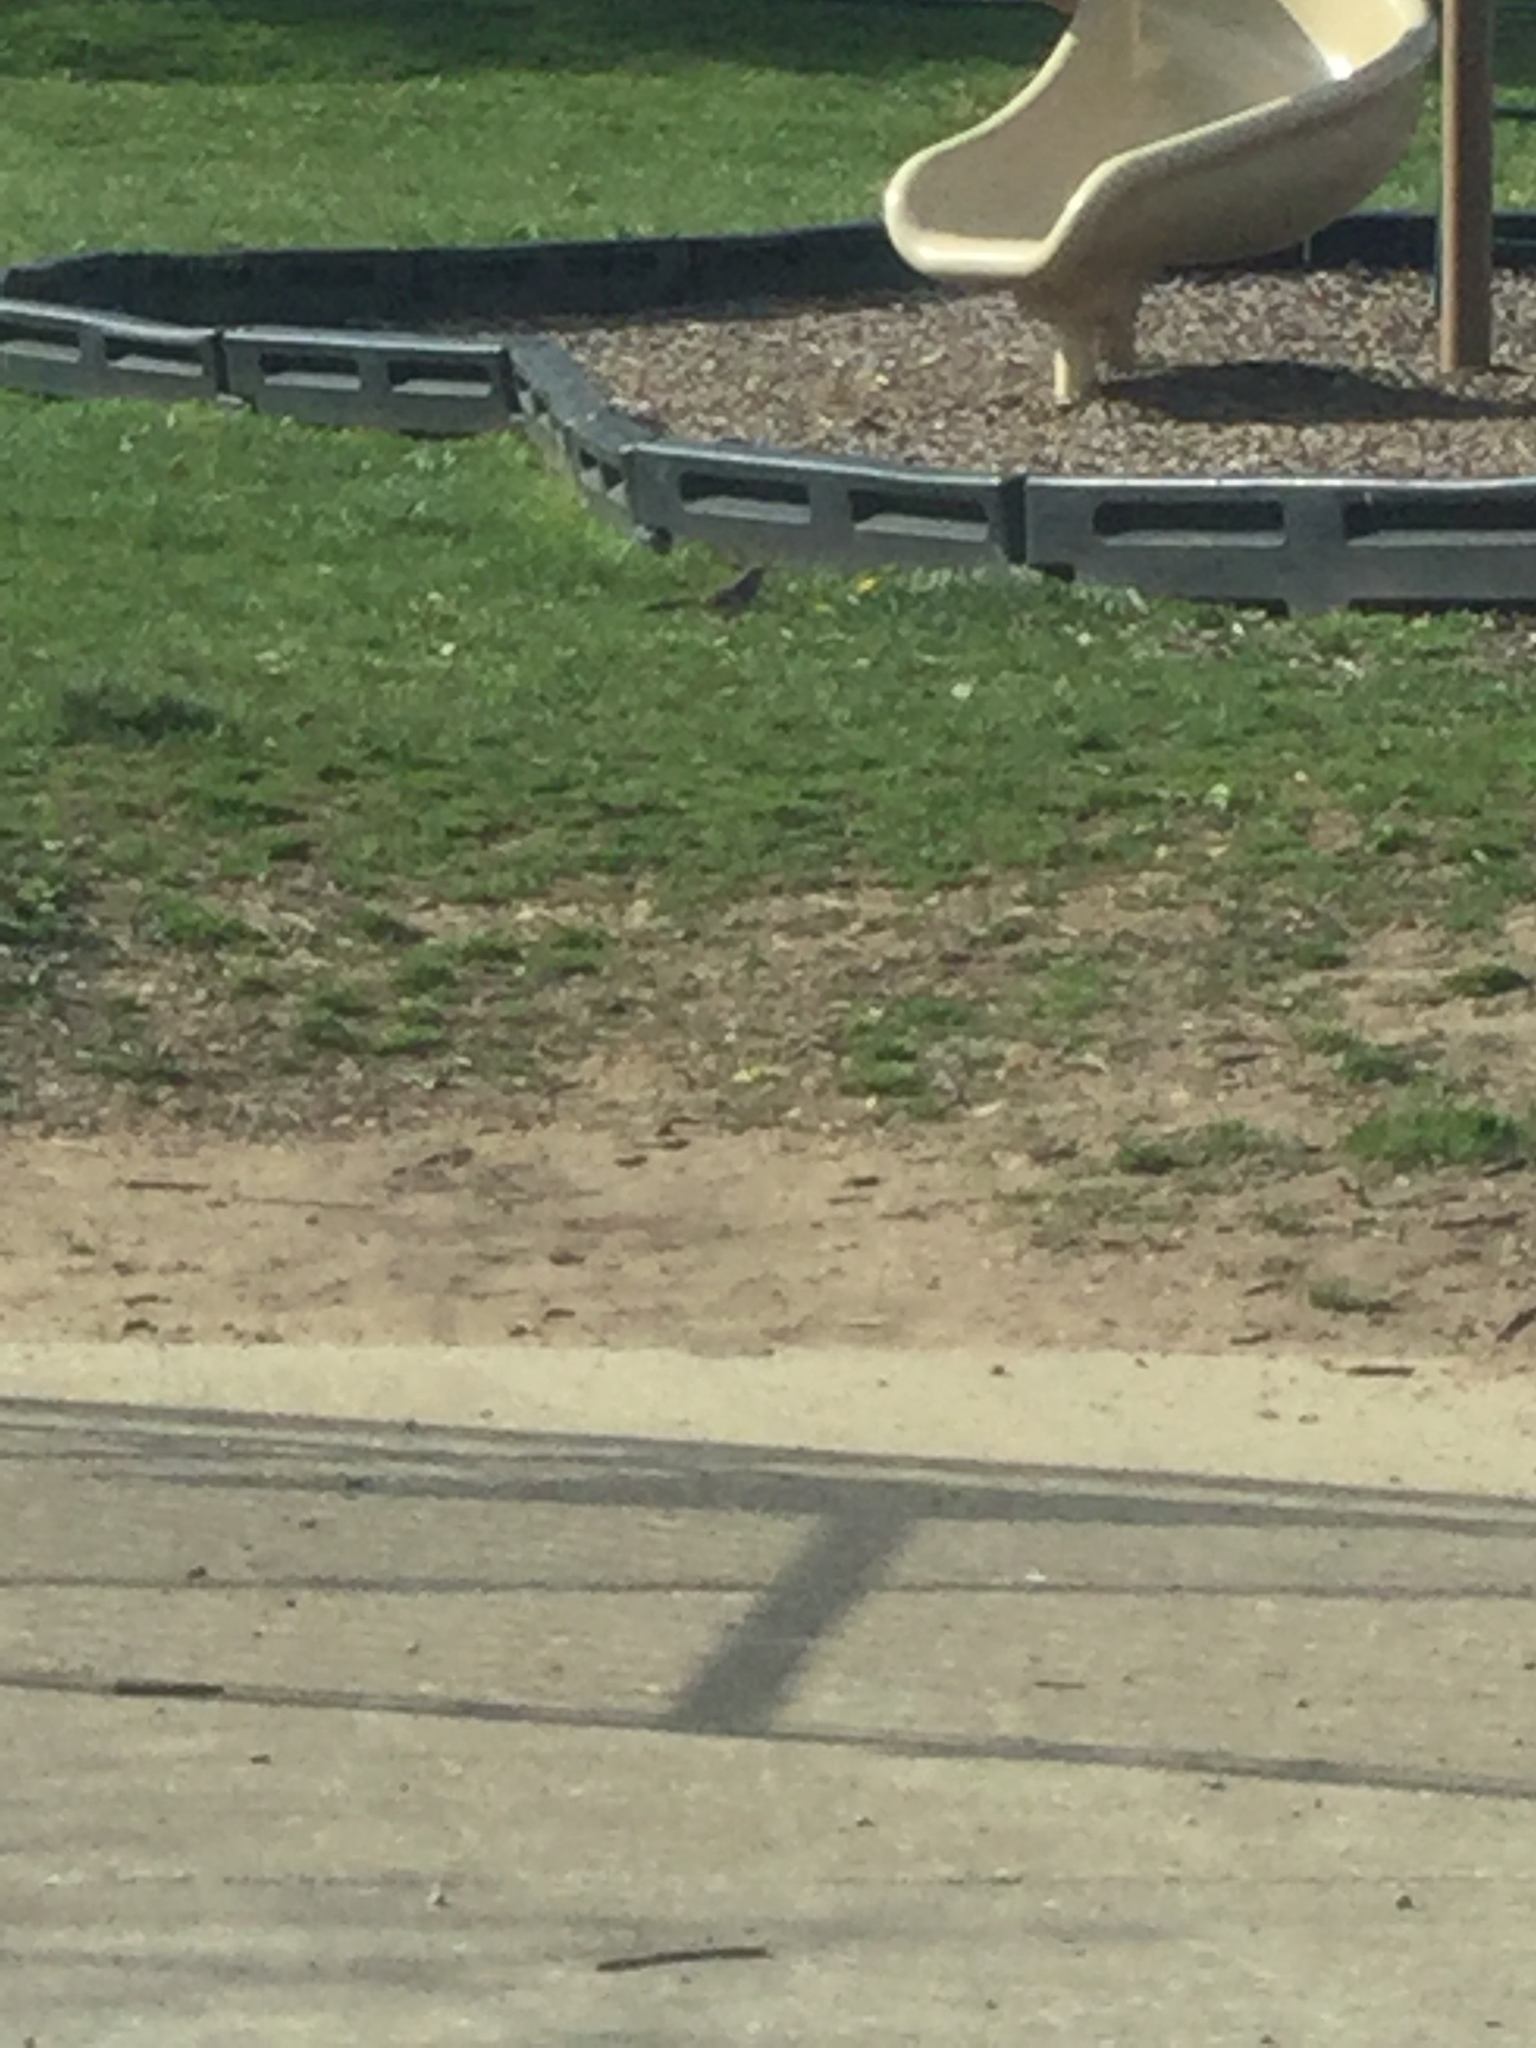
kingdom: Animalia
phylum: Chordata
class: Aves
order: Passeriformes
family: Mimidae
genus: Mimus
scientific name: Mimus polyglottos
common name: Northern mockingbird
